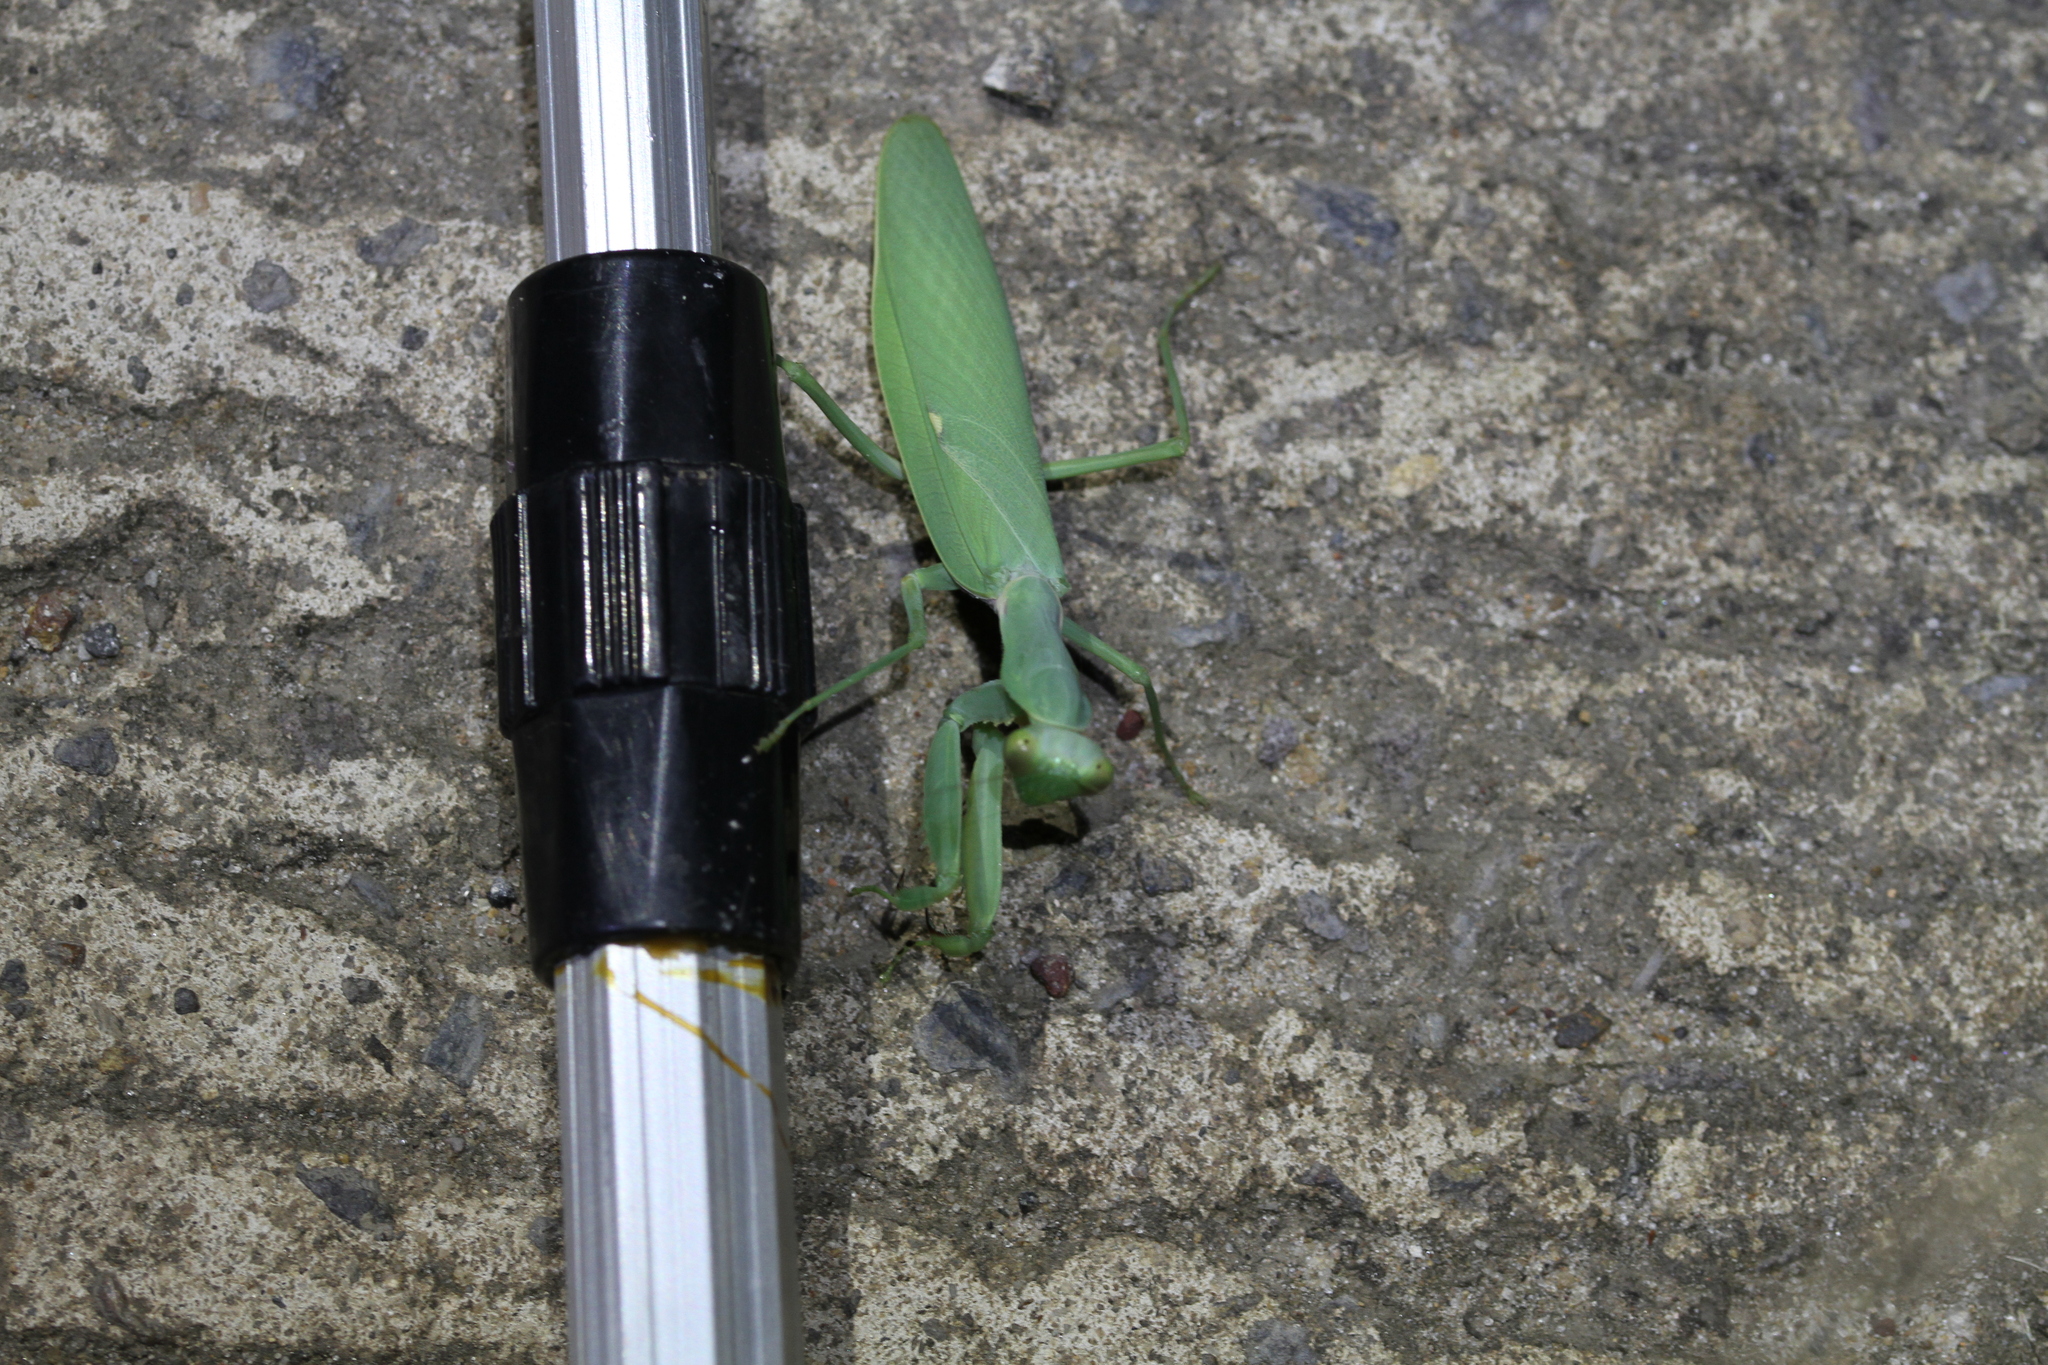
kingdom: Animalia
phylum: Arthropoda
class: Insecta
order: Mantodea
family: Mantidae
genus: Hierodula
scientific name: Hierodula patellifera
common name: Asian mantis
